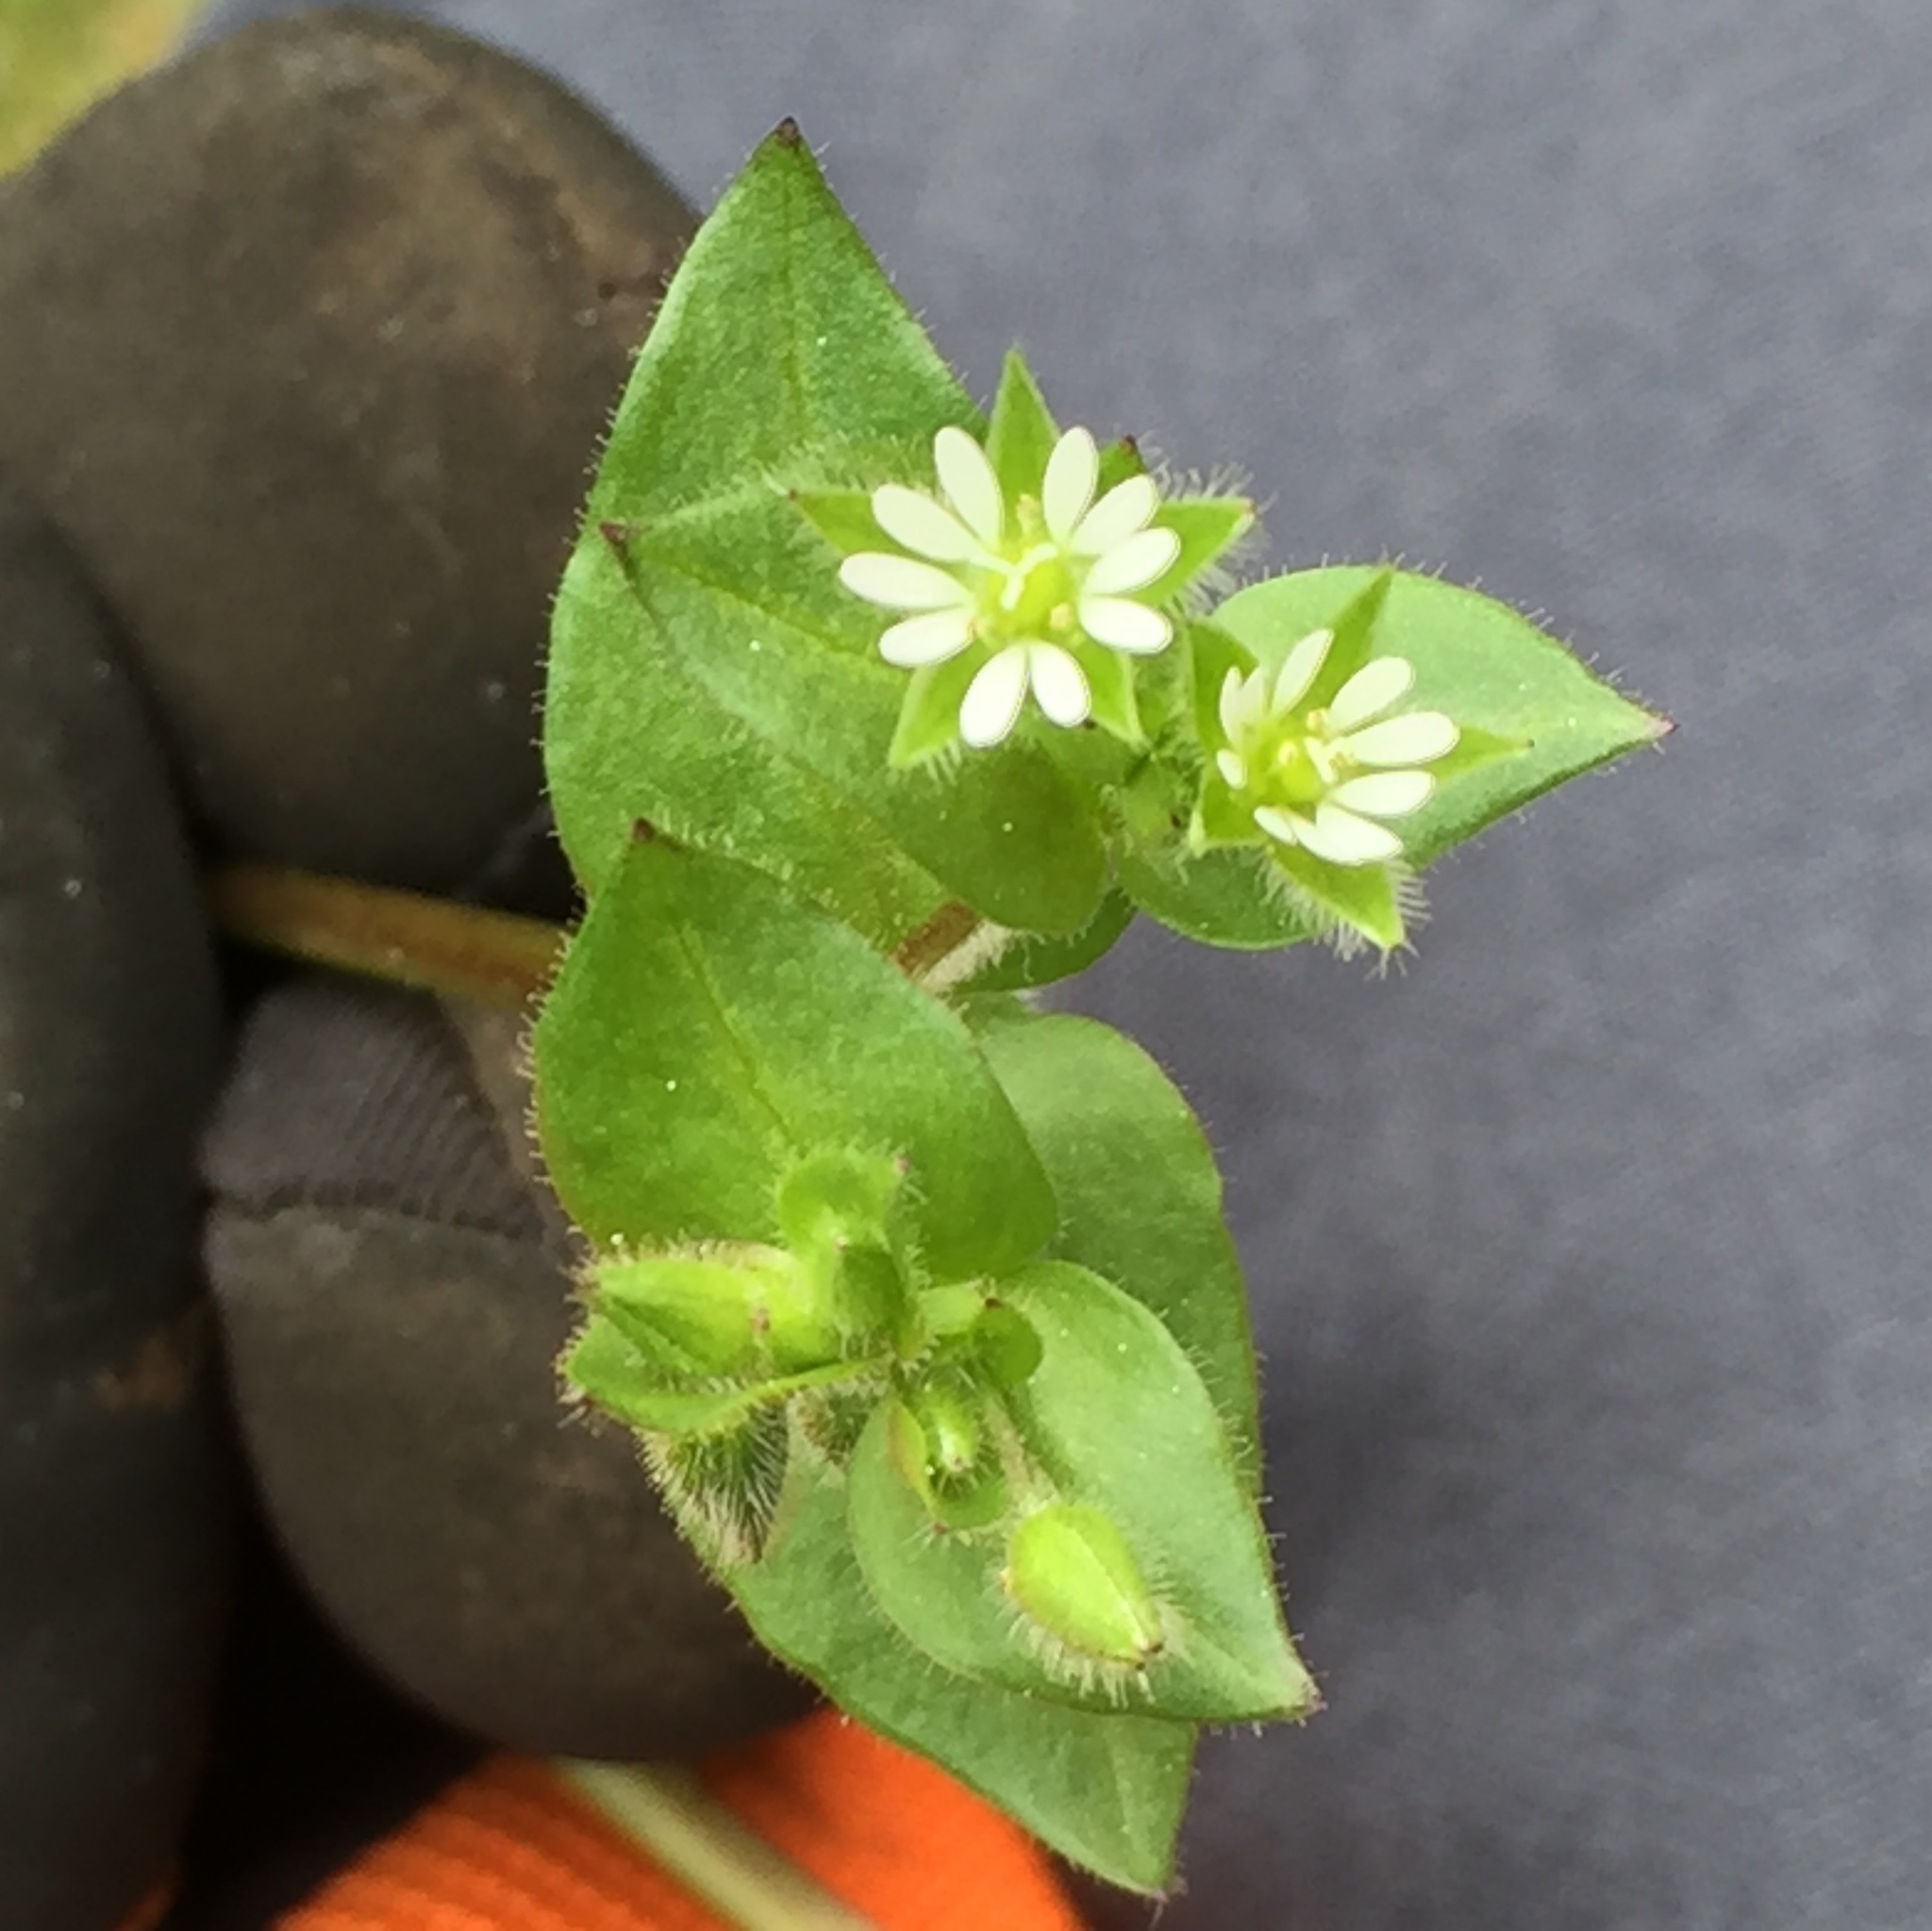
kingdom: Plantae
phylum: Tracheophyta
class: Magnoliopsida
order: Caryophyllales
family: Caryophyllaceae
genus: Stellaria
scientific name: Stellaria media
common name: Common chickweed
